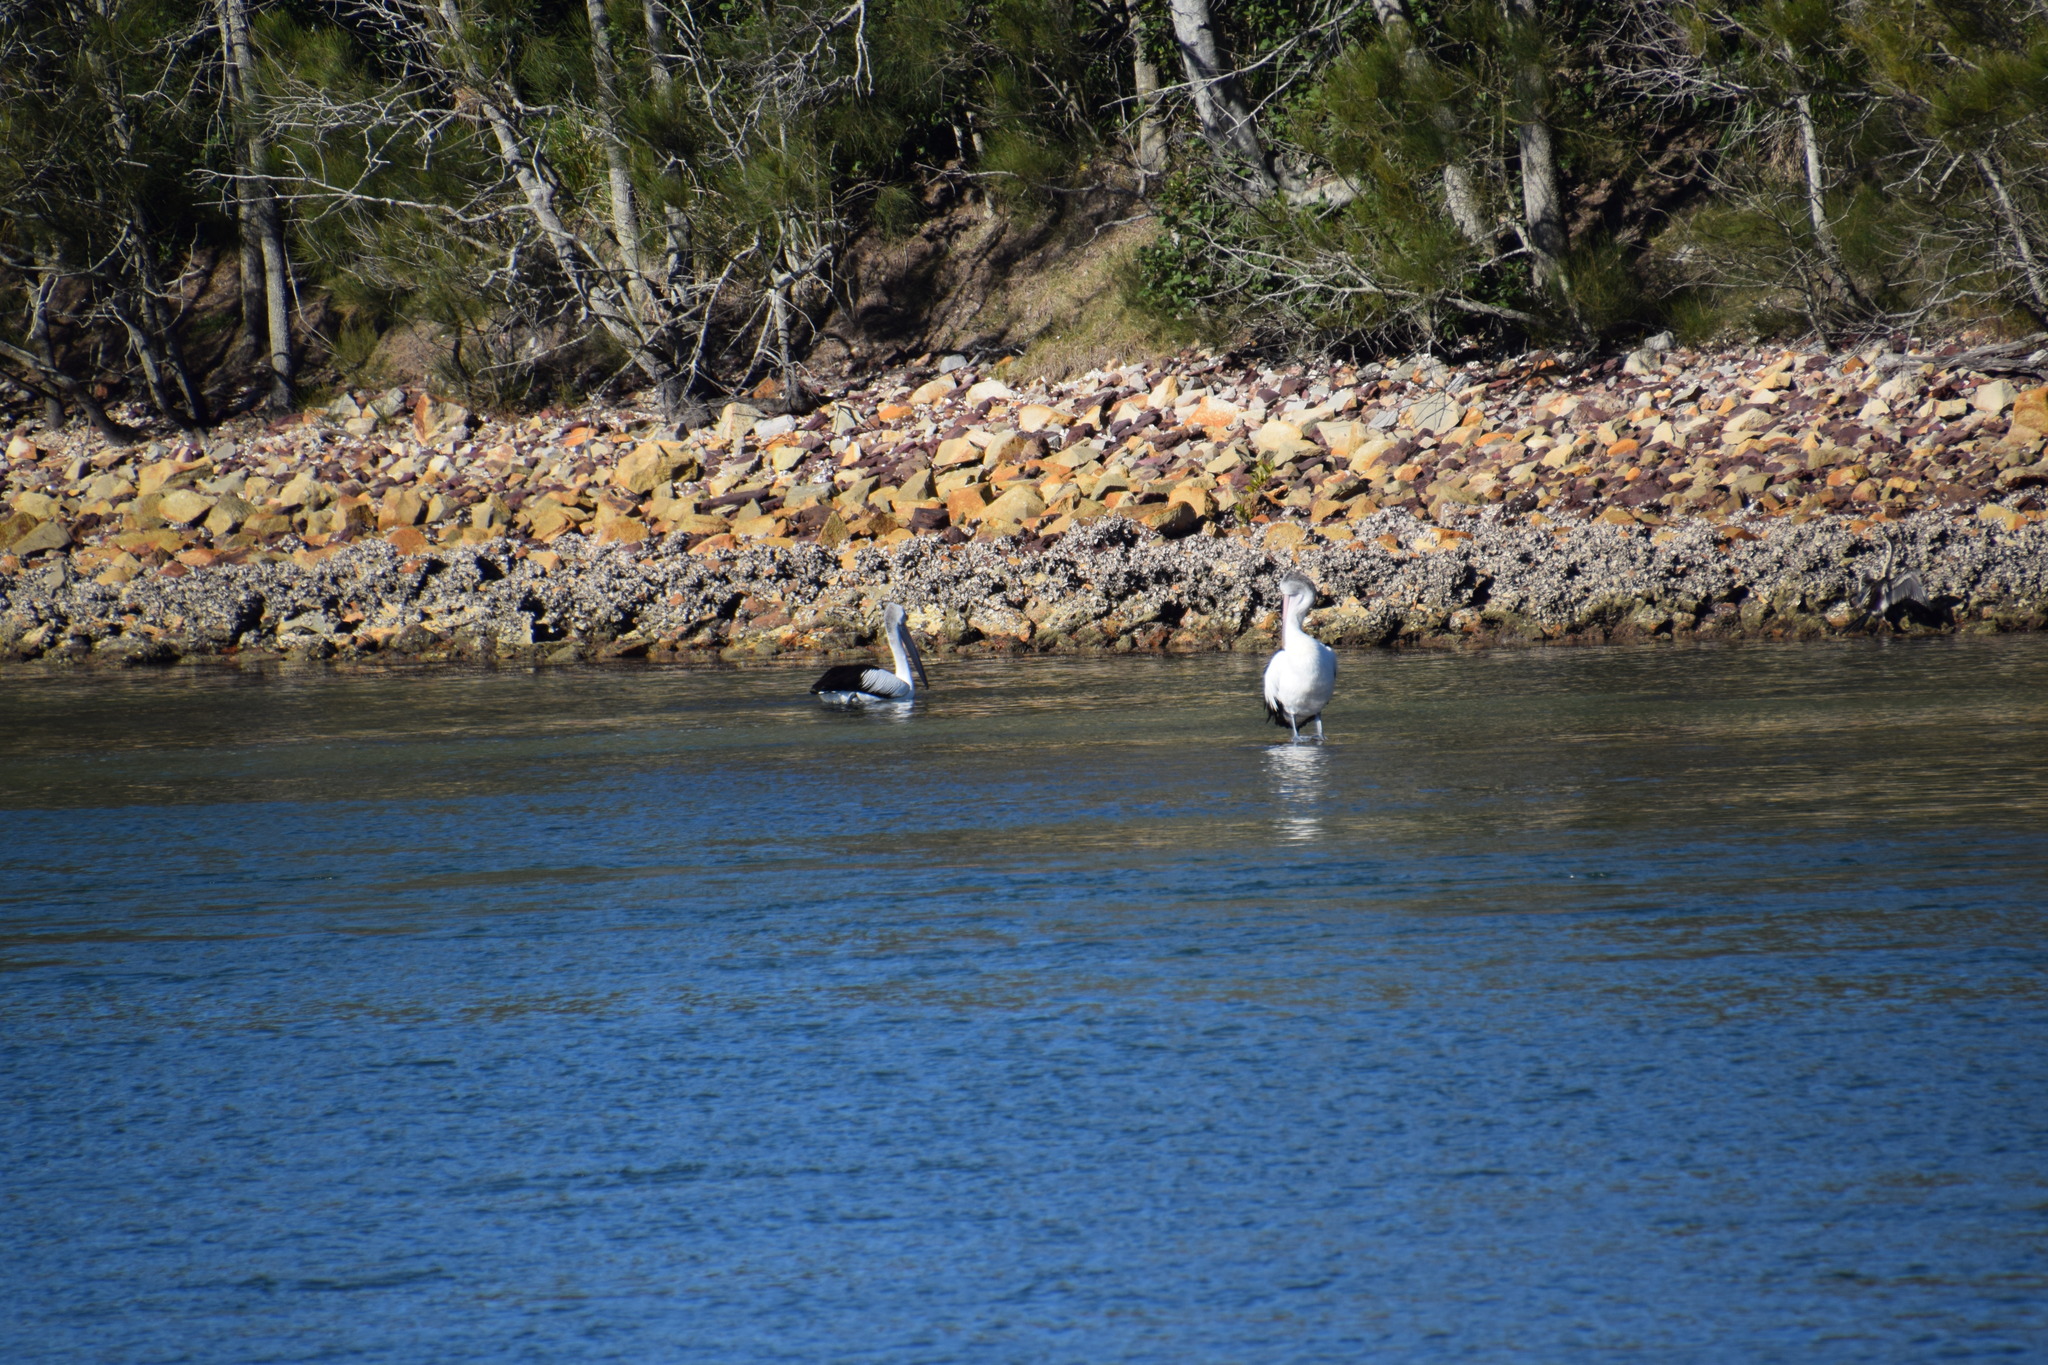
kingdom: Animalia
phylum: Chordata
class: Aves
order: Pelecaniformes
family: Pelecanidae
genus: Pelecanus
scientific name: Pelecanus conspicillatus
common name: Australian pelican
